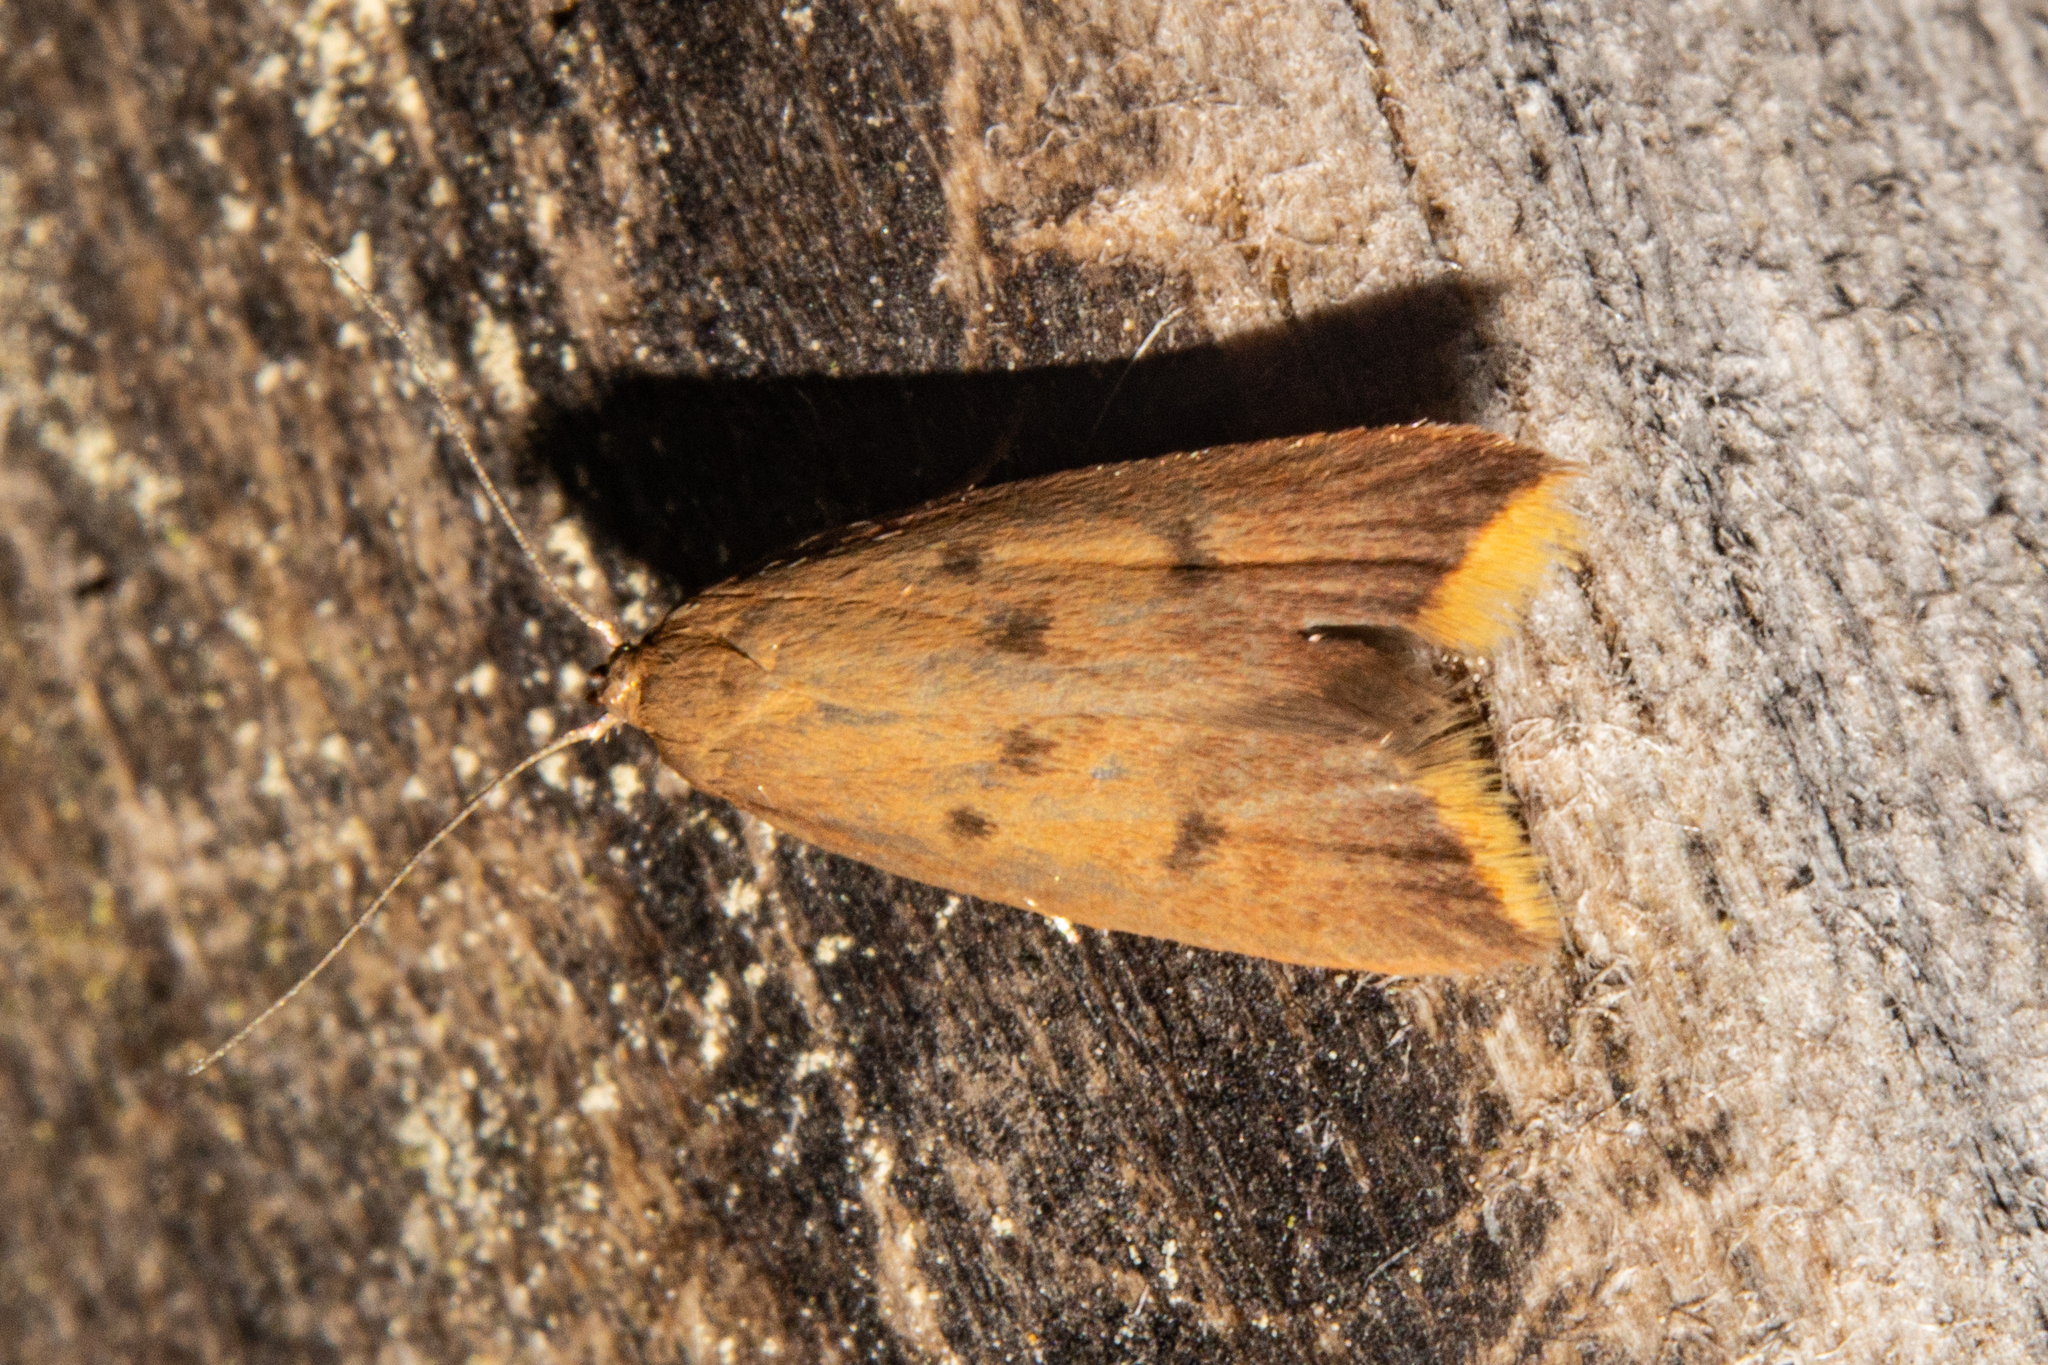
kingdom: Animalia
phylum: Arthropoda
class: Insecta
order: Lepidoptera
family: Oecophoridae
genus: Tachystola
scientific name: Tachystola acroxantha
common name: Ruddy streak
